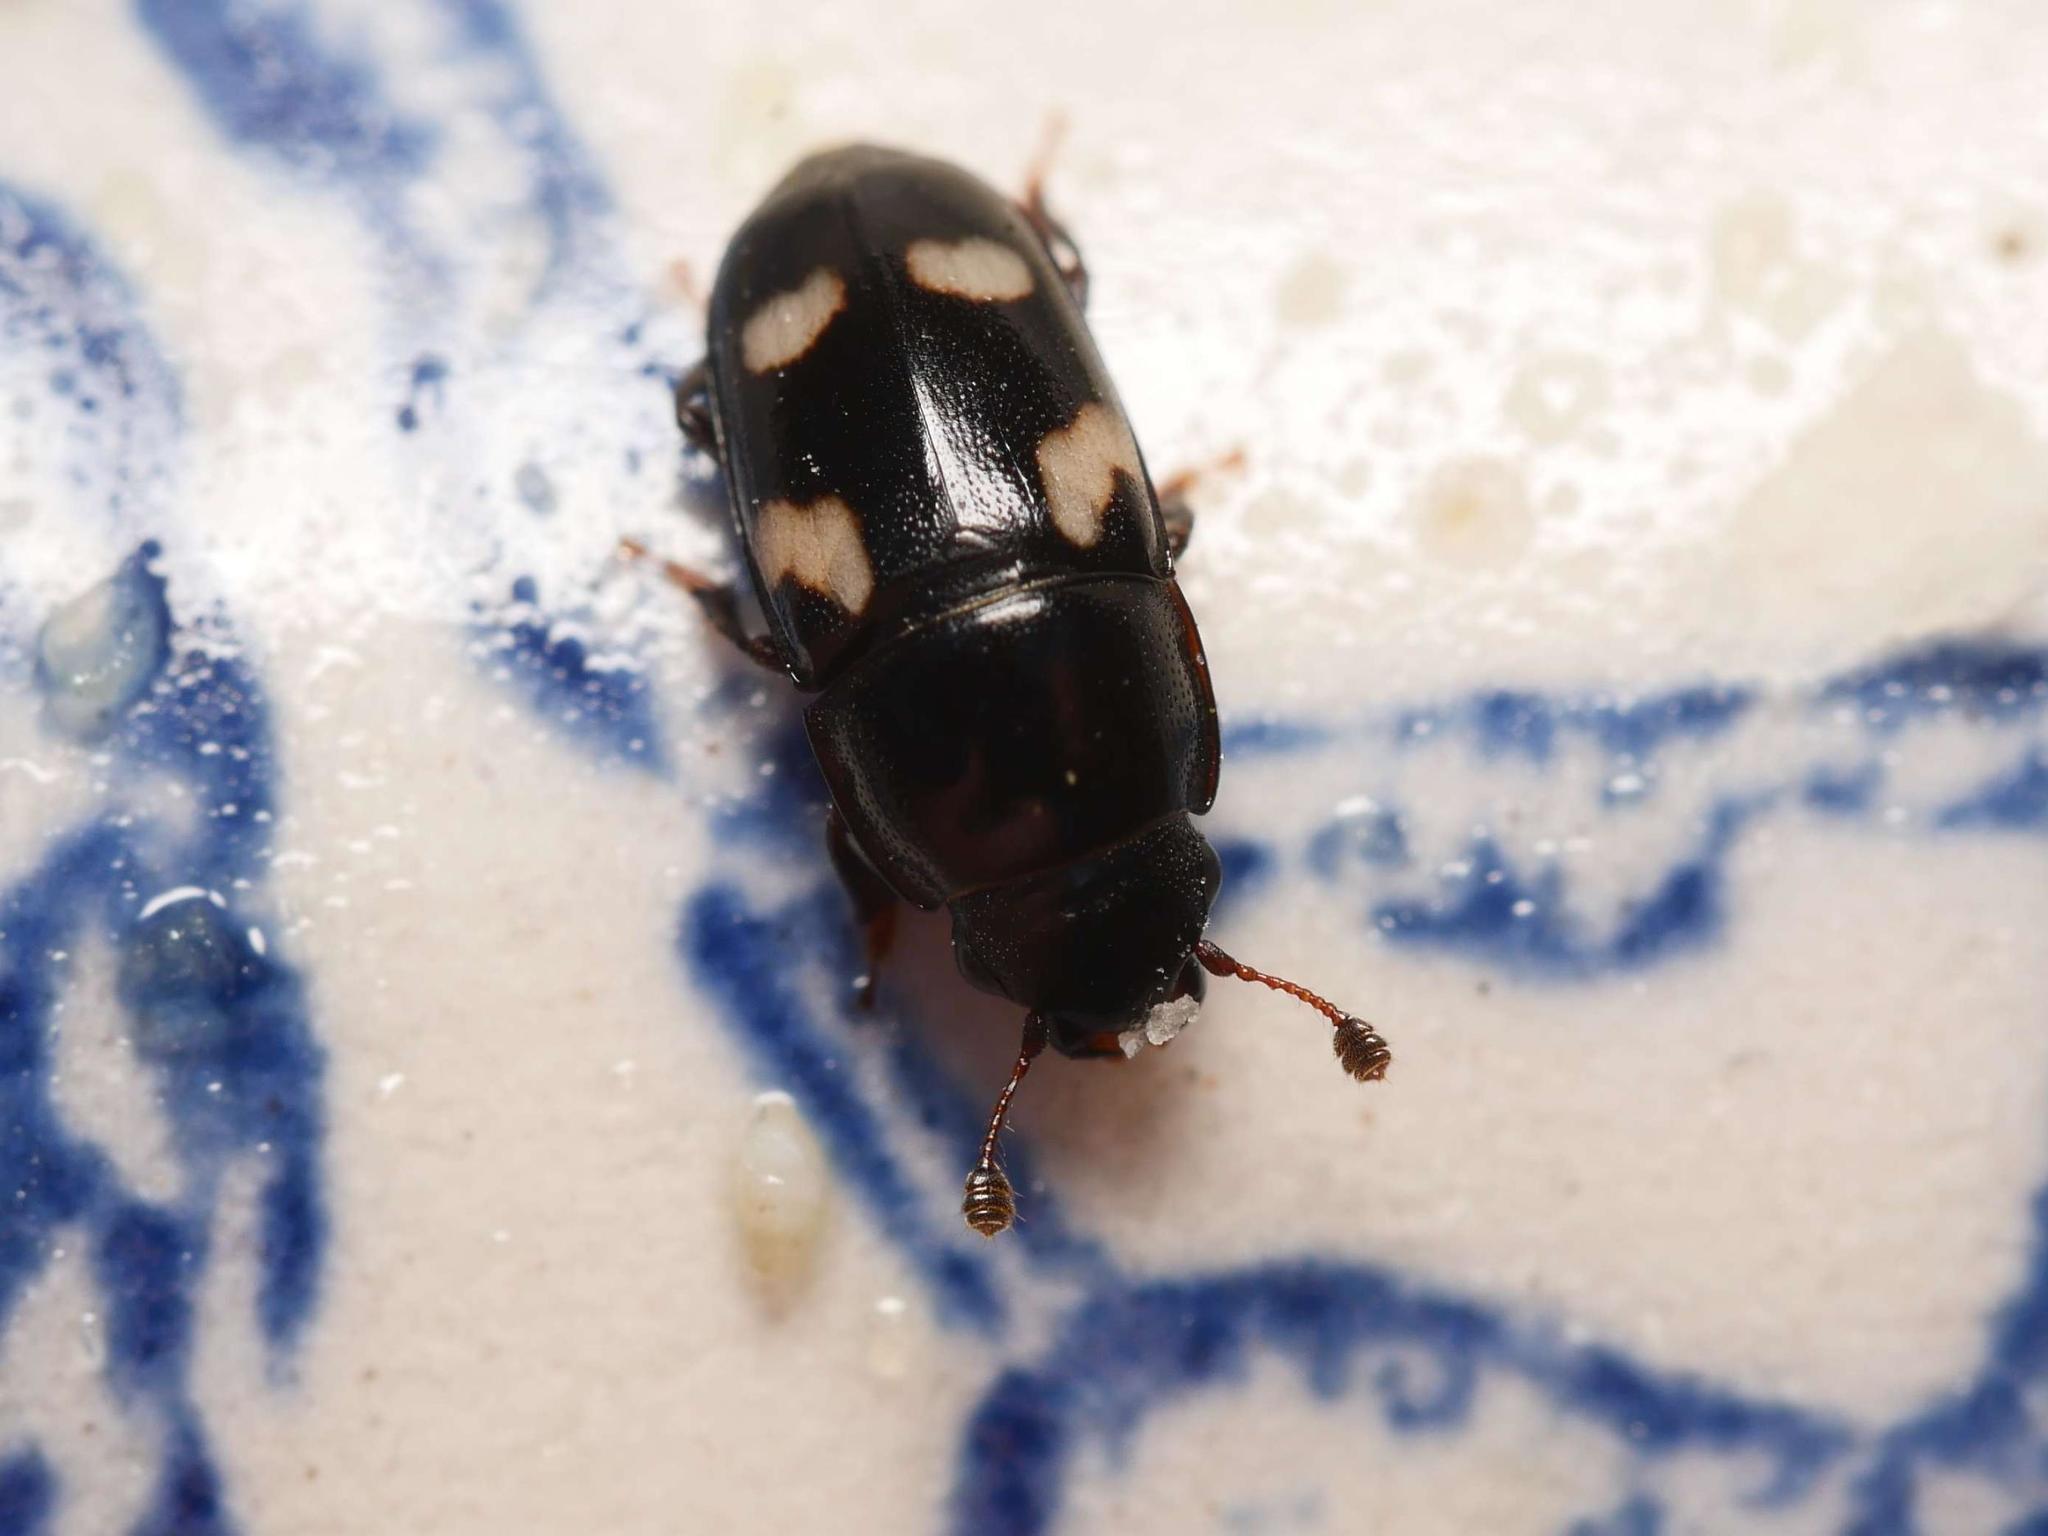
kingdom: Animalia
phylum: Arthropoda
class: Insecta
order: Coleoptera
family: Nitidulidae
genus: Glischrochilus
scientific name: Glischrochilus quadrisignatus
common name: Picnic beetle
